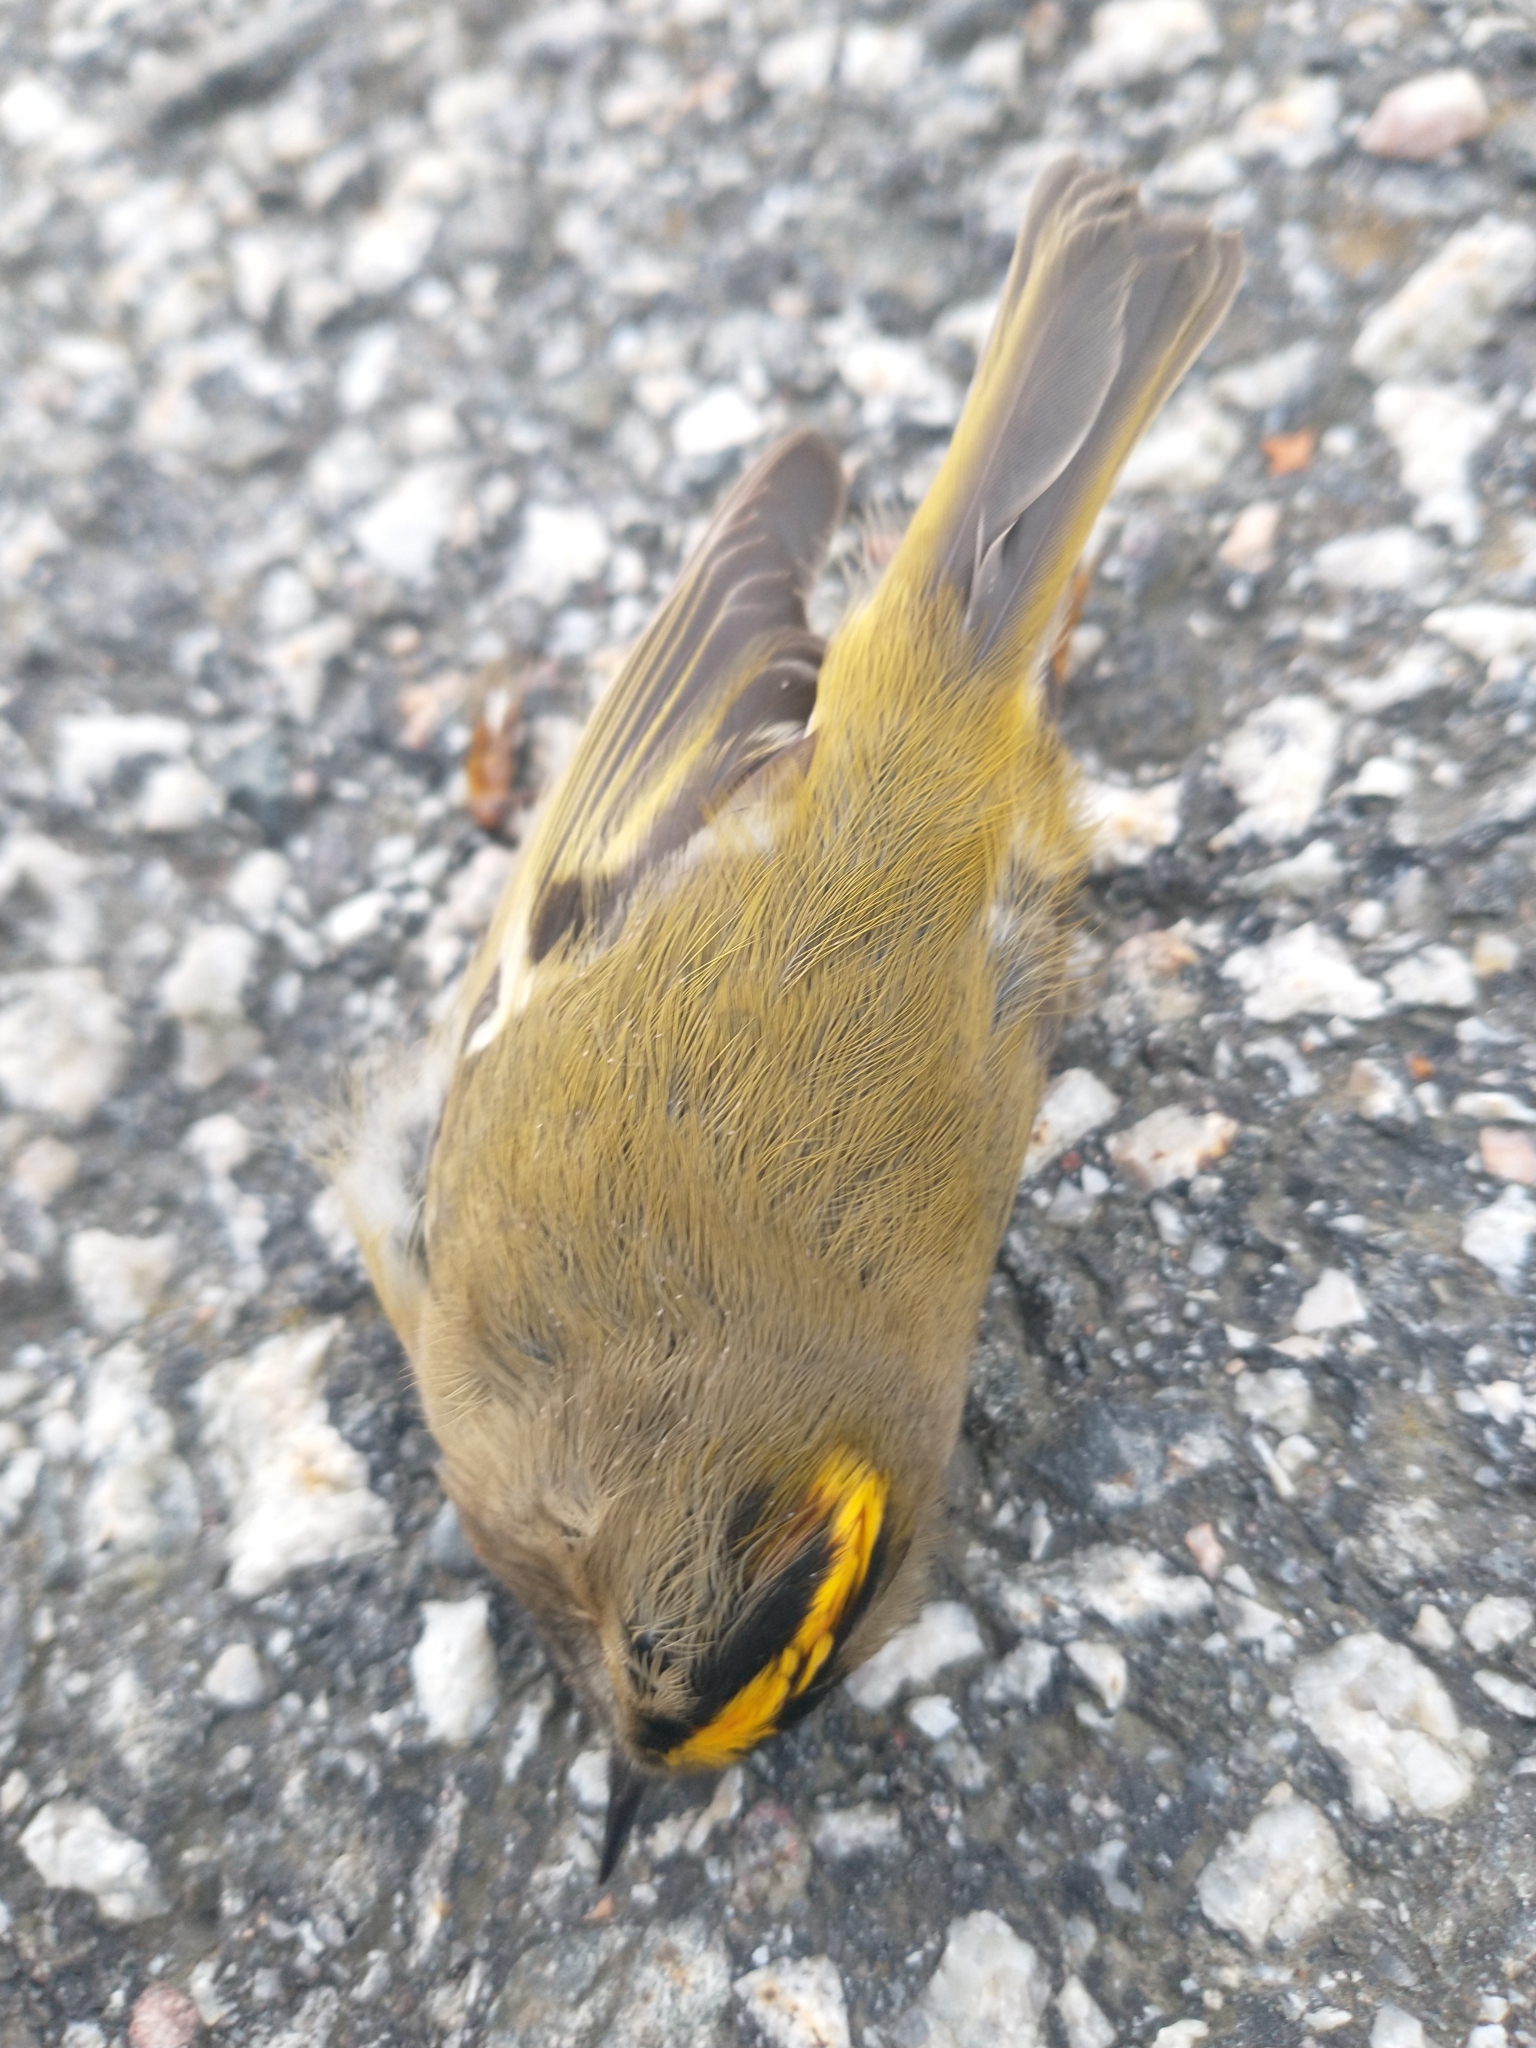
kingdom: Animalia
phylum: Chordata
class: Aves
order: Passeriformes
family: Regulidae
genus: Regulus
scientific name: Regulus regulus
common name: Goldcrest
